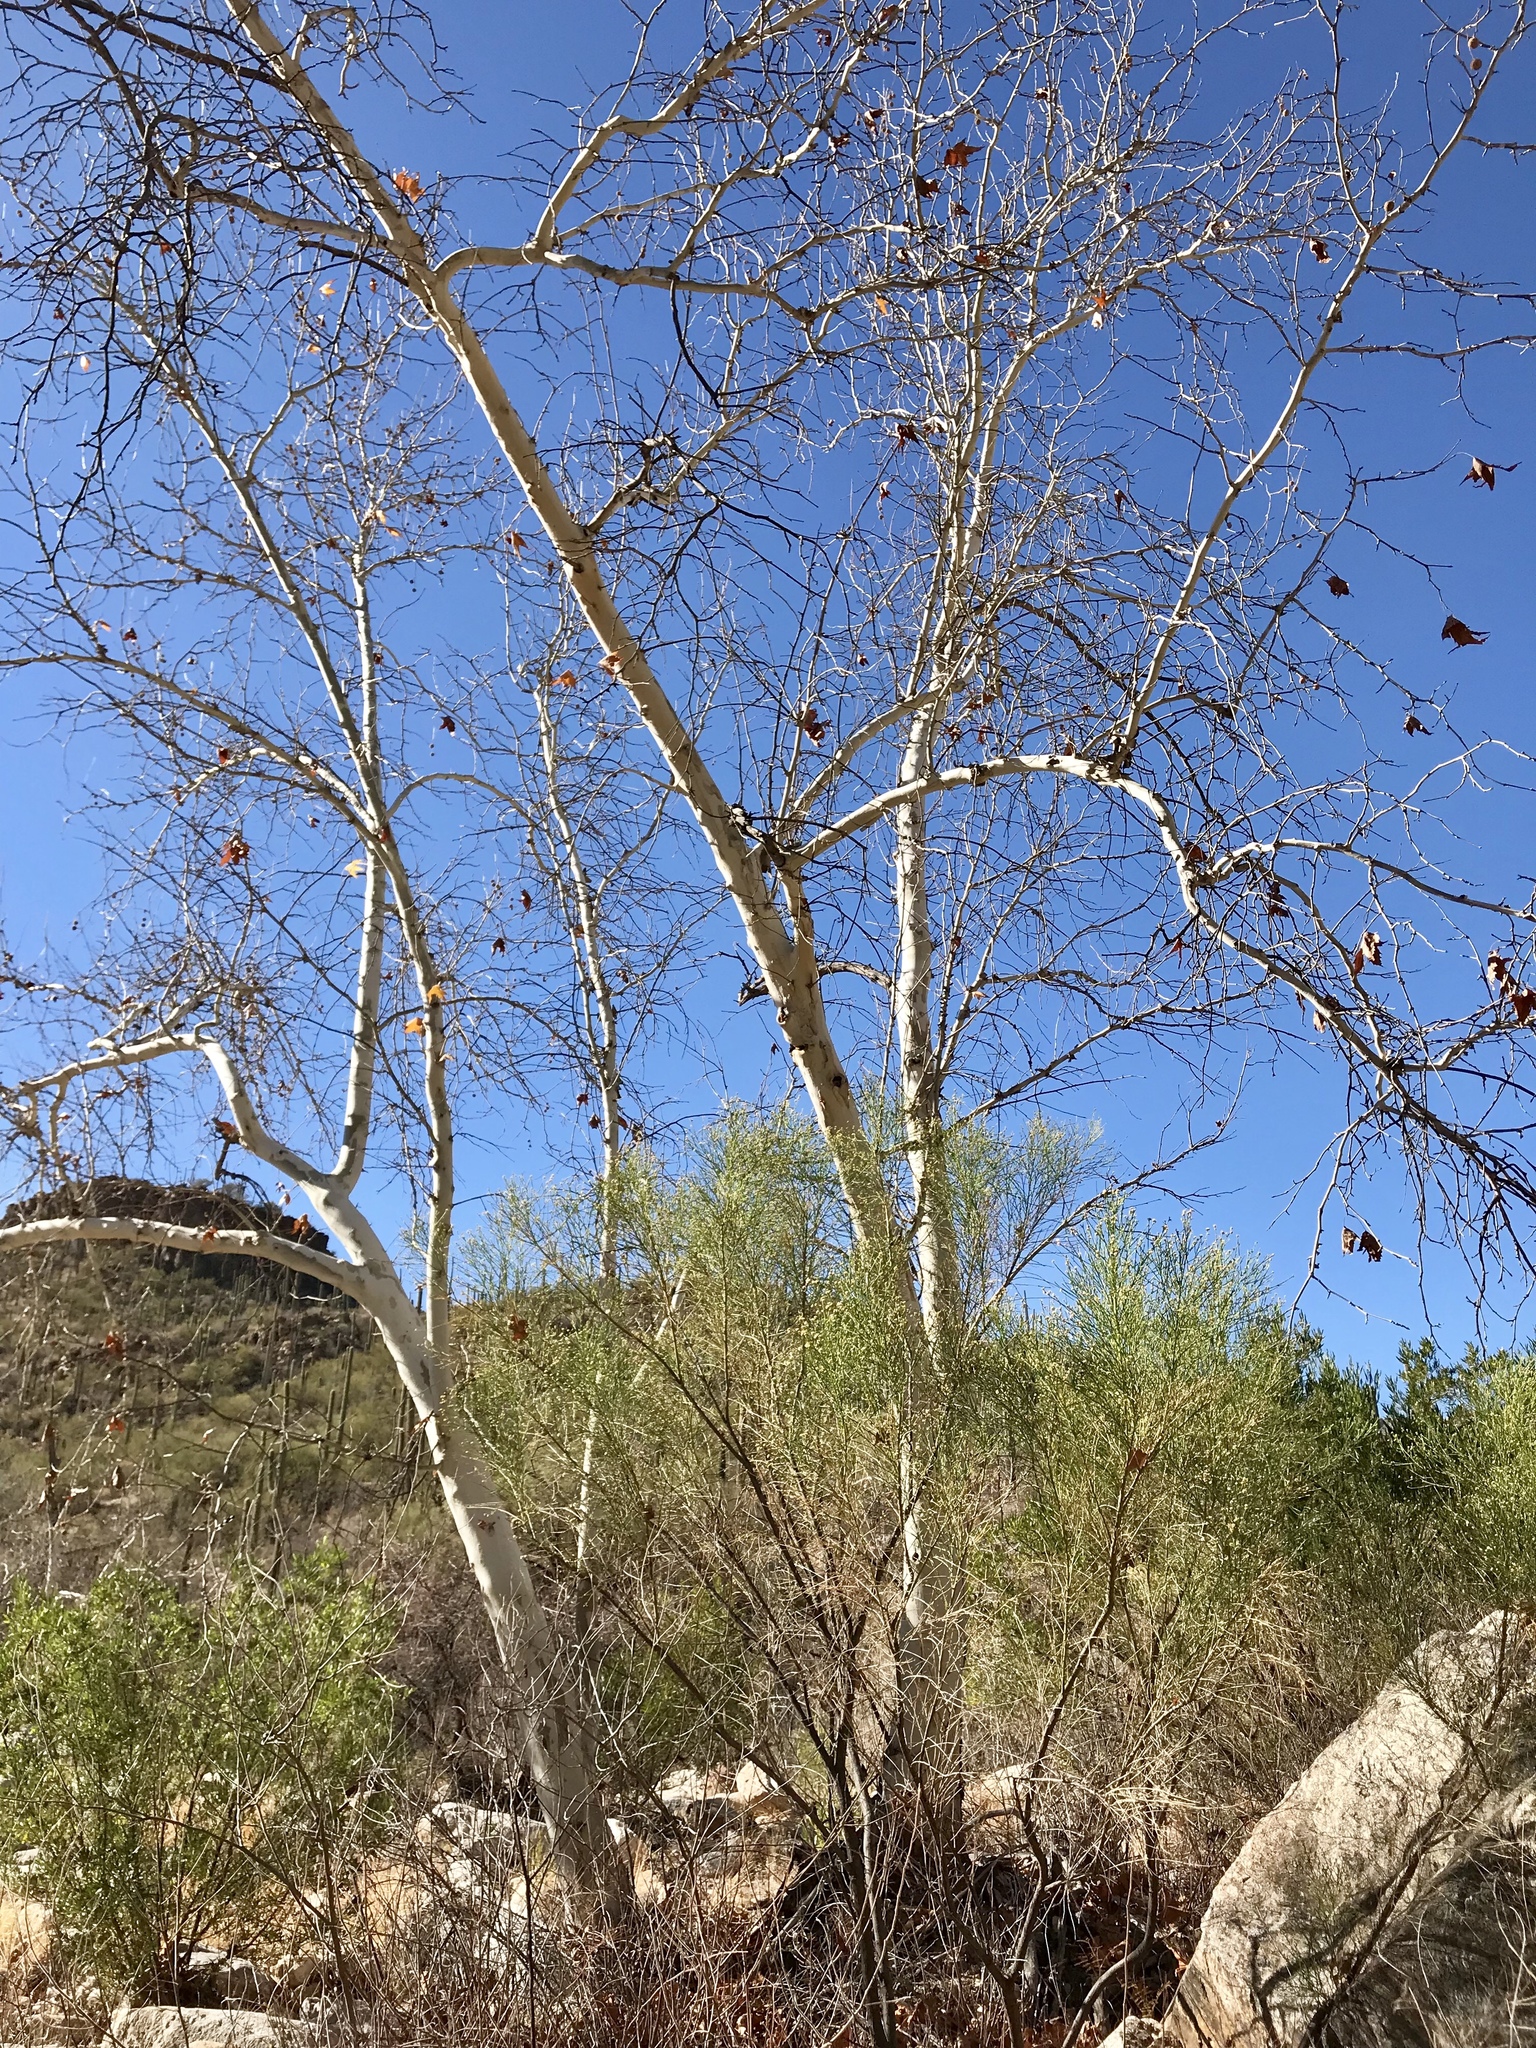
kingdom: Plantae
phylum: Tracheophyta
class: Magnoliopsida
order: Proteales
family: Platanaceae
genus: Platanus
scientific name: Platanus wrightii
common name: Arizona sycamore
